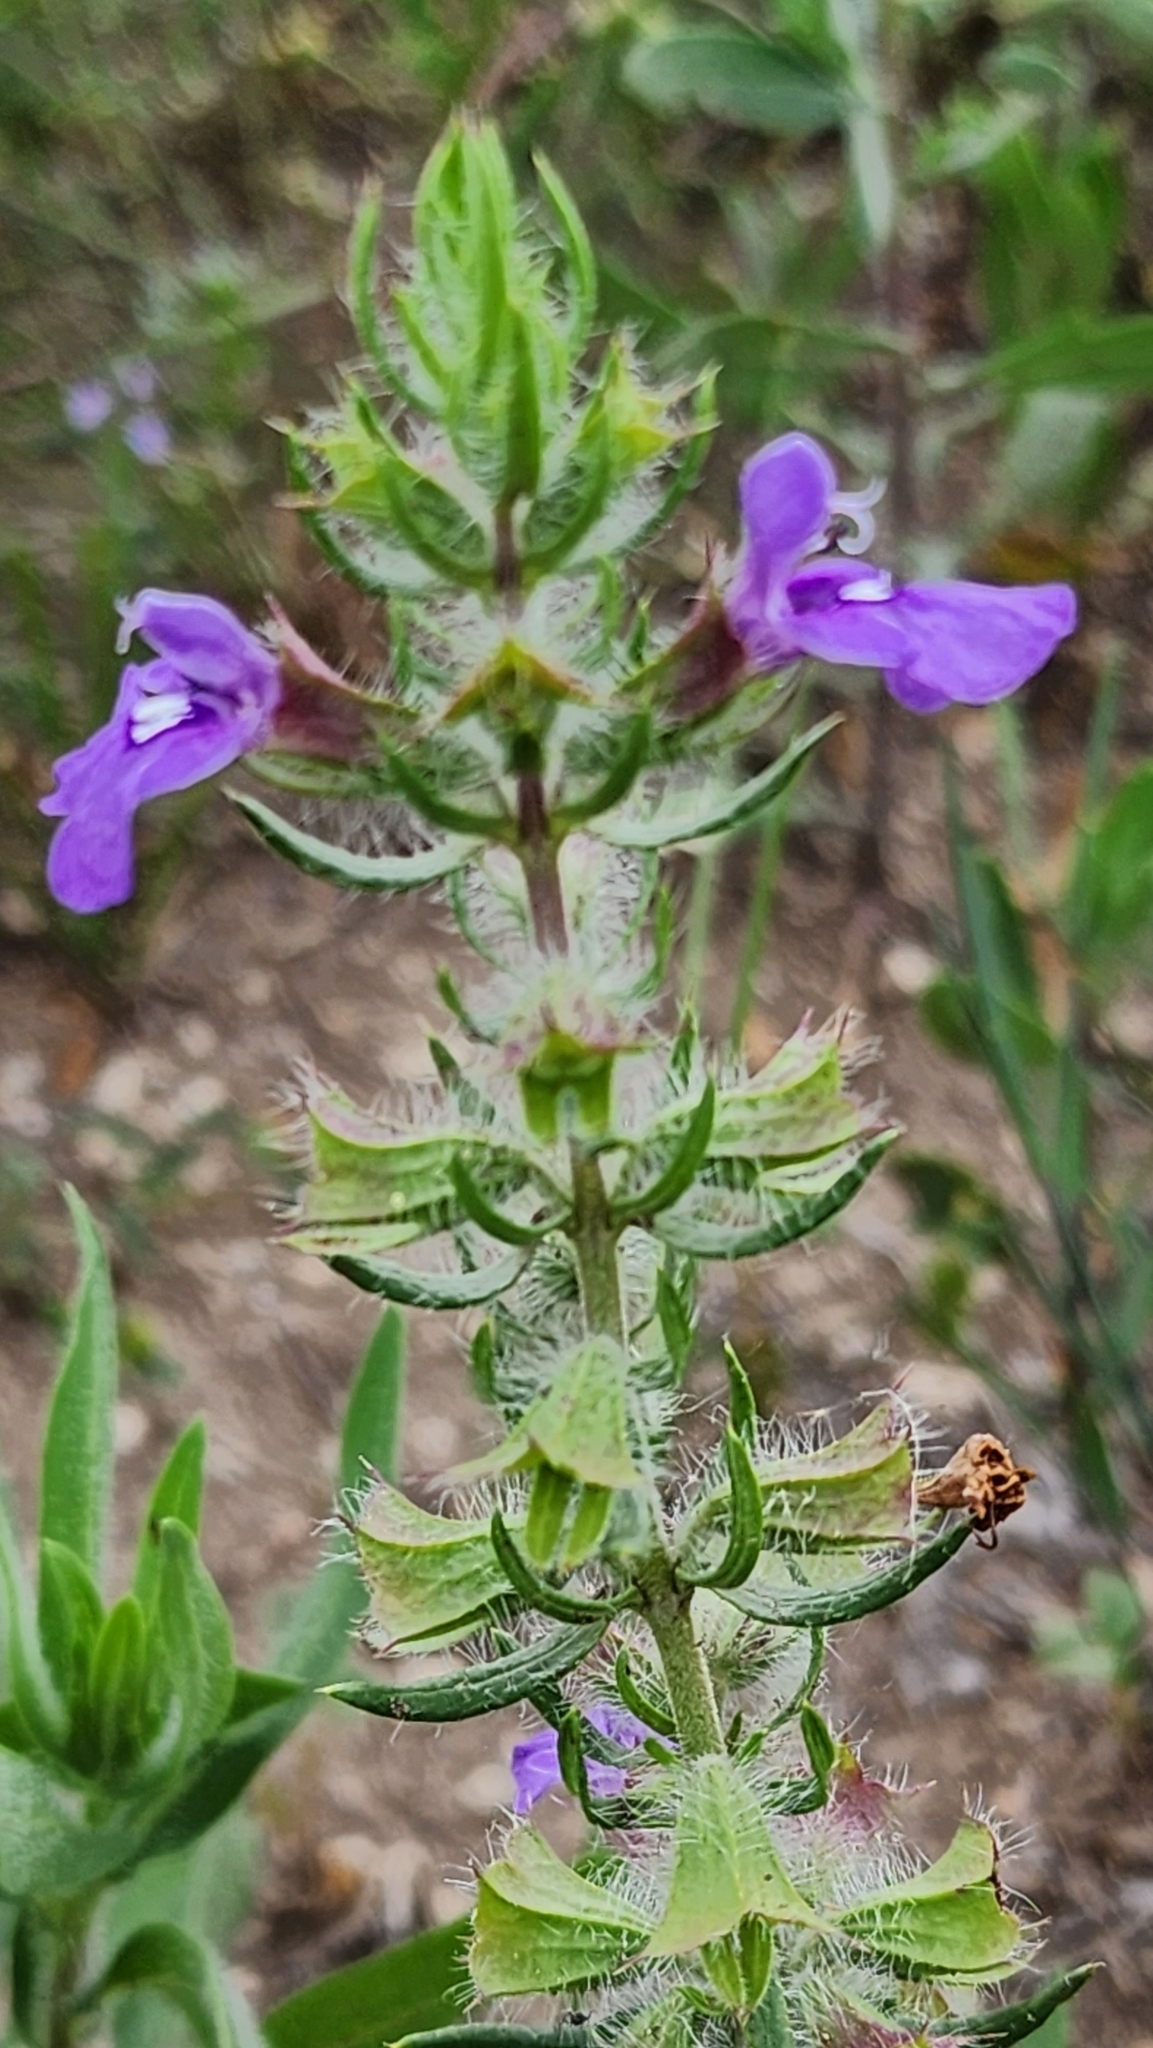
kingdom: Plantae
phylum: Tracheophyta
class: Magnoliopsida
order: Lamiales
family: Lamiaceae
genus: Salvia
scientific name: Salvia texana
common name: Texas sage
